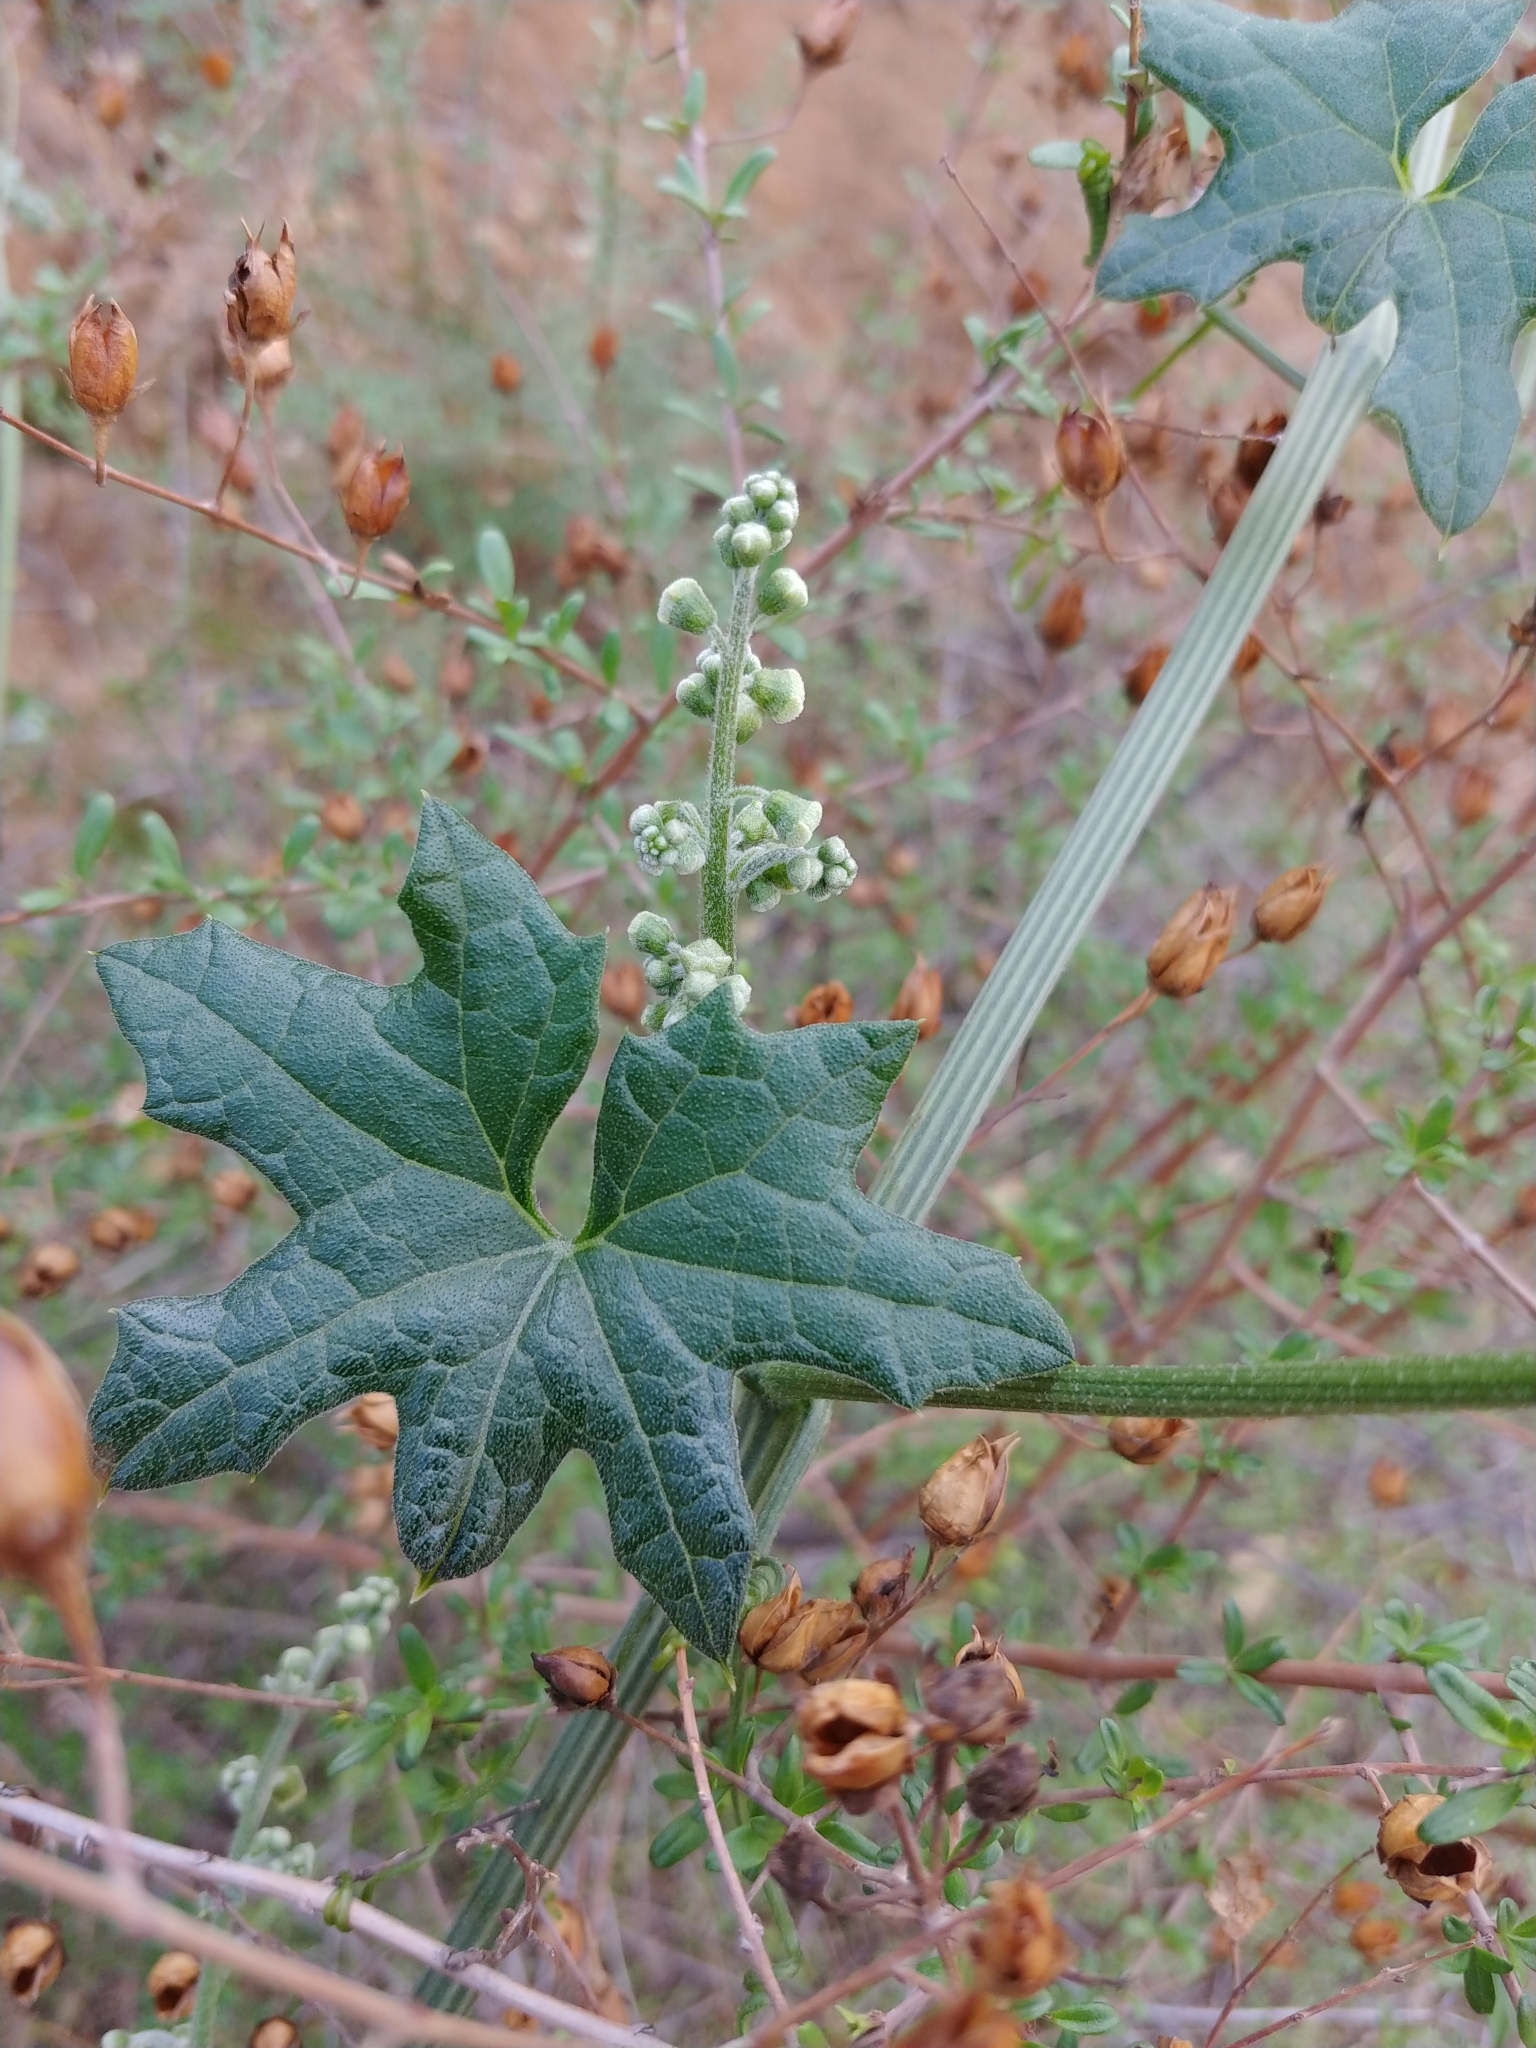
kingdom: Plantae
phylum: Tracheophyta
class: Magnoliopsida
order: Cucurbitales
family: Cucurbitaceae
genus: Marah
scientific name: Marah macrocarpa
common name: Cucamonga manroot
